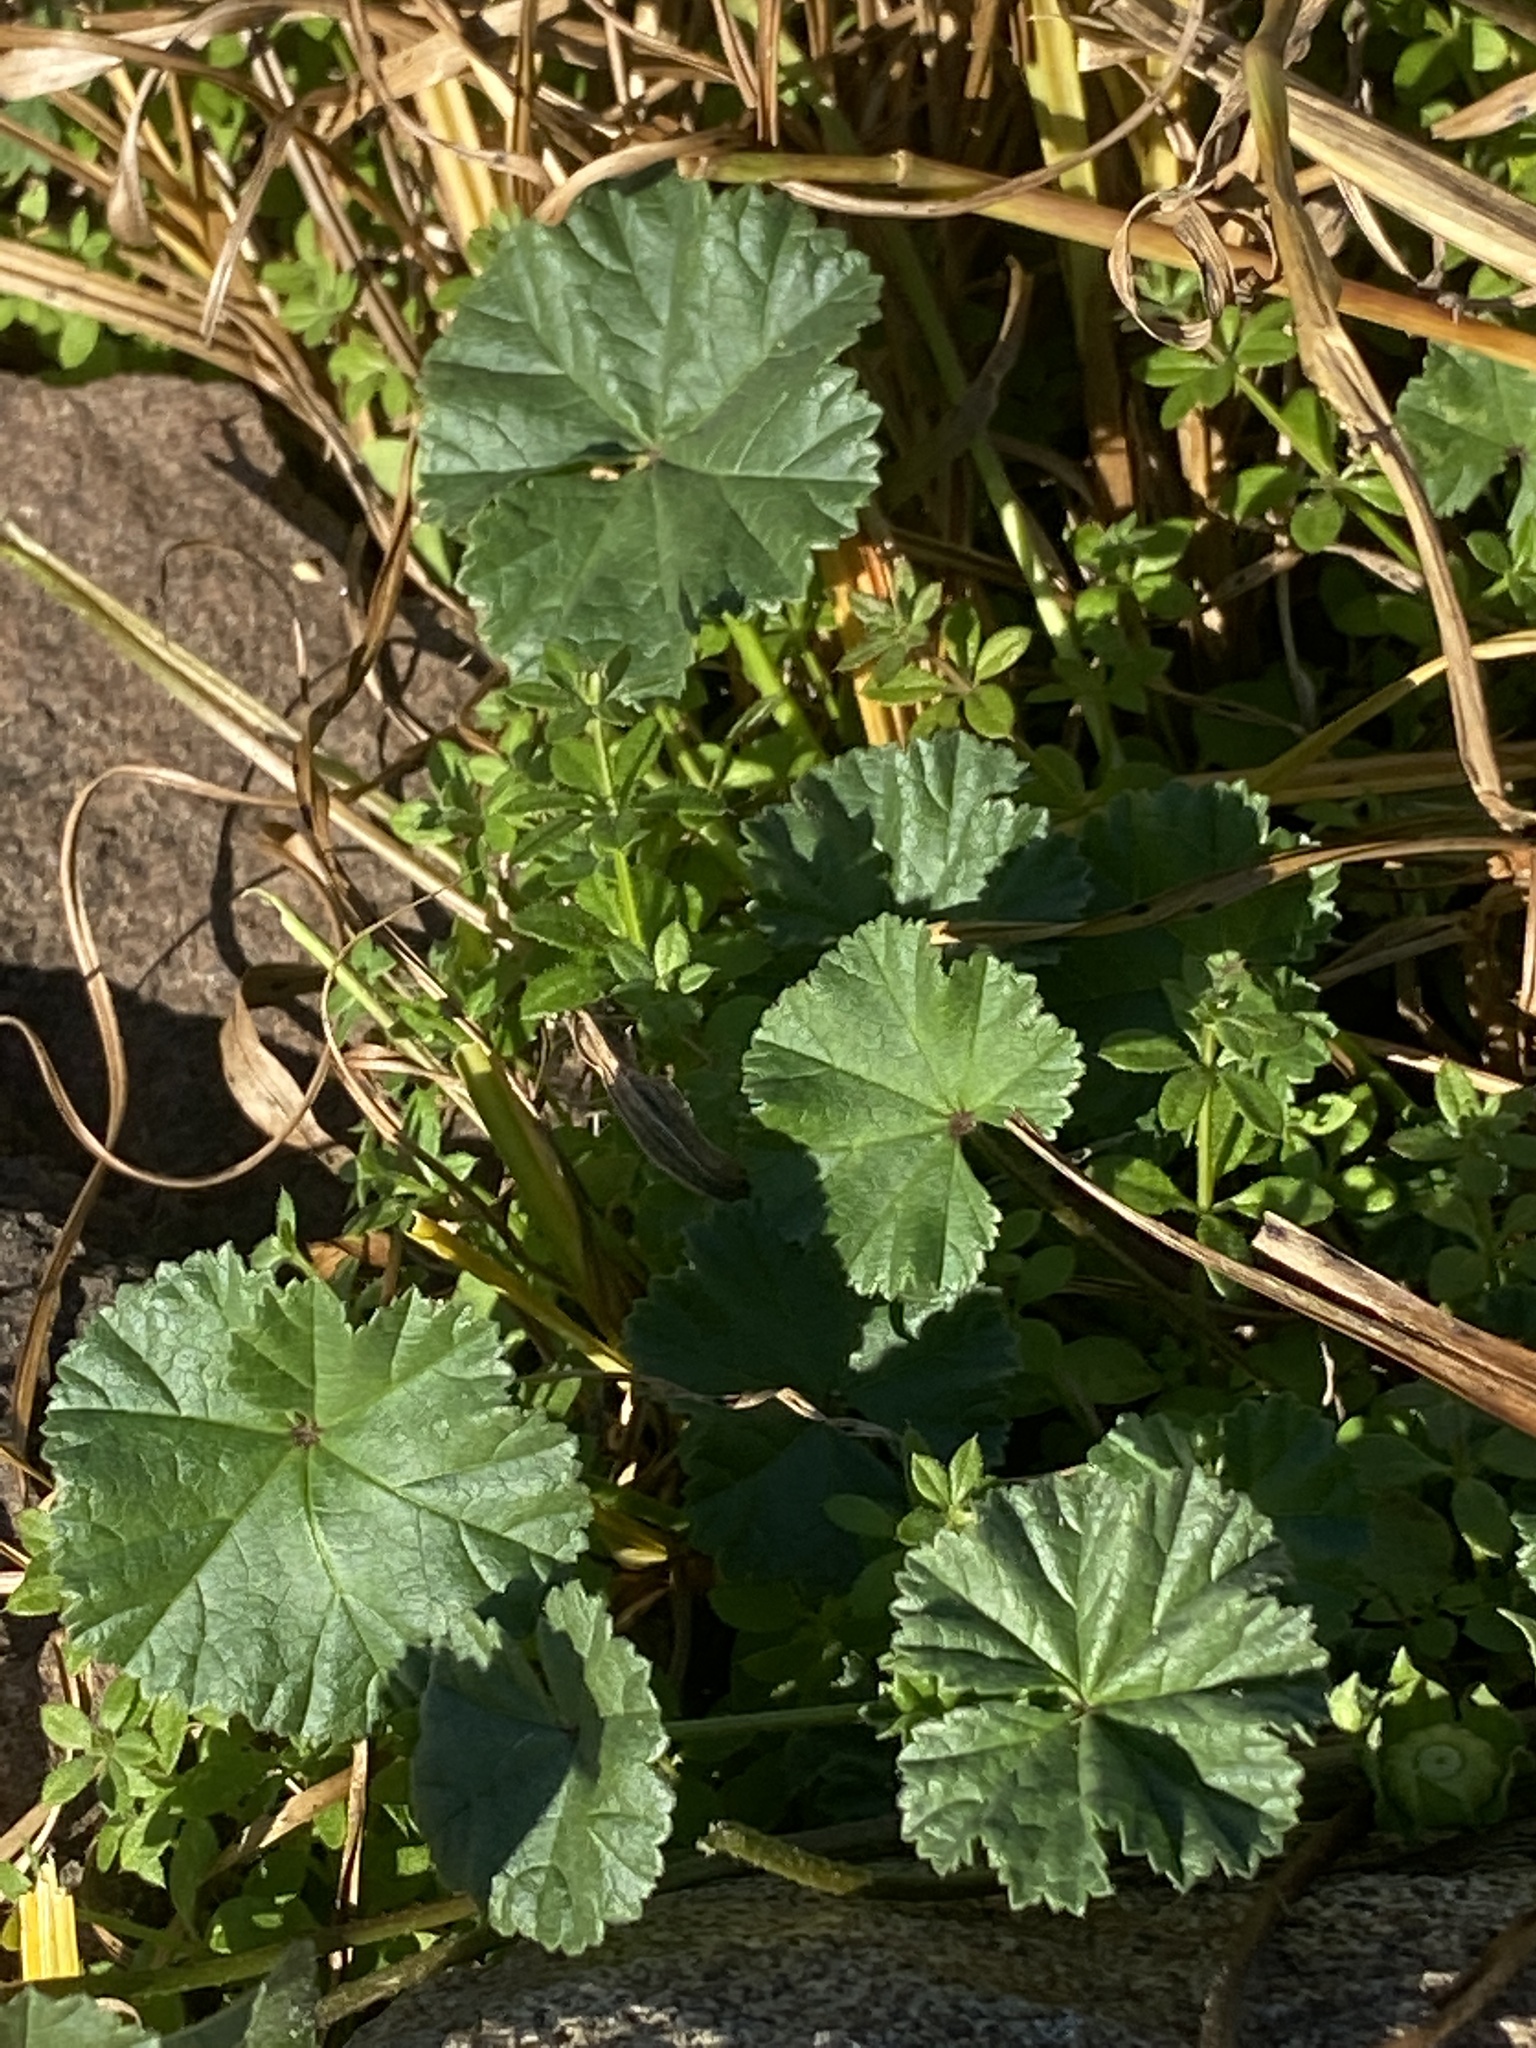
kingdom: Plantae
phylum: Tracheophyta
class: Magnoliopsida
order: Malvales
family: Malvaceae
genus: Malva
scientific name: Malva neglecta
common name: Common mallow
